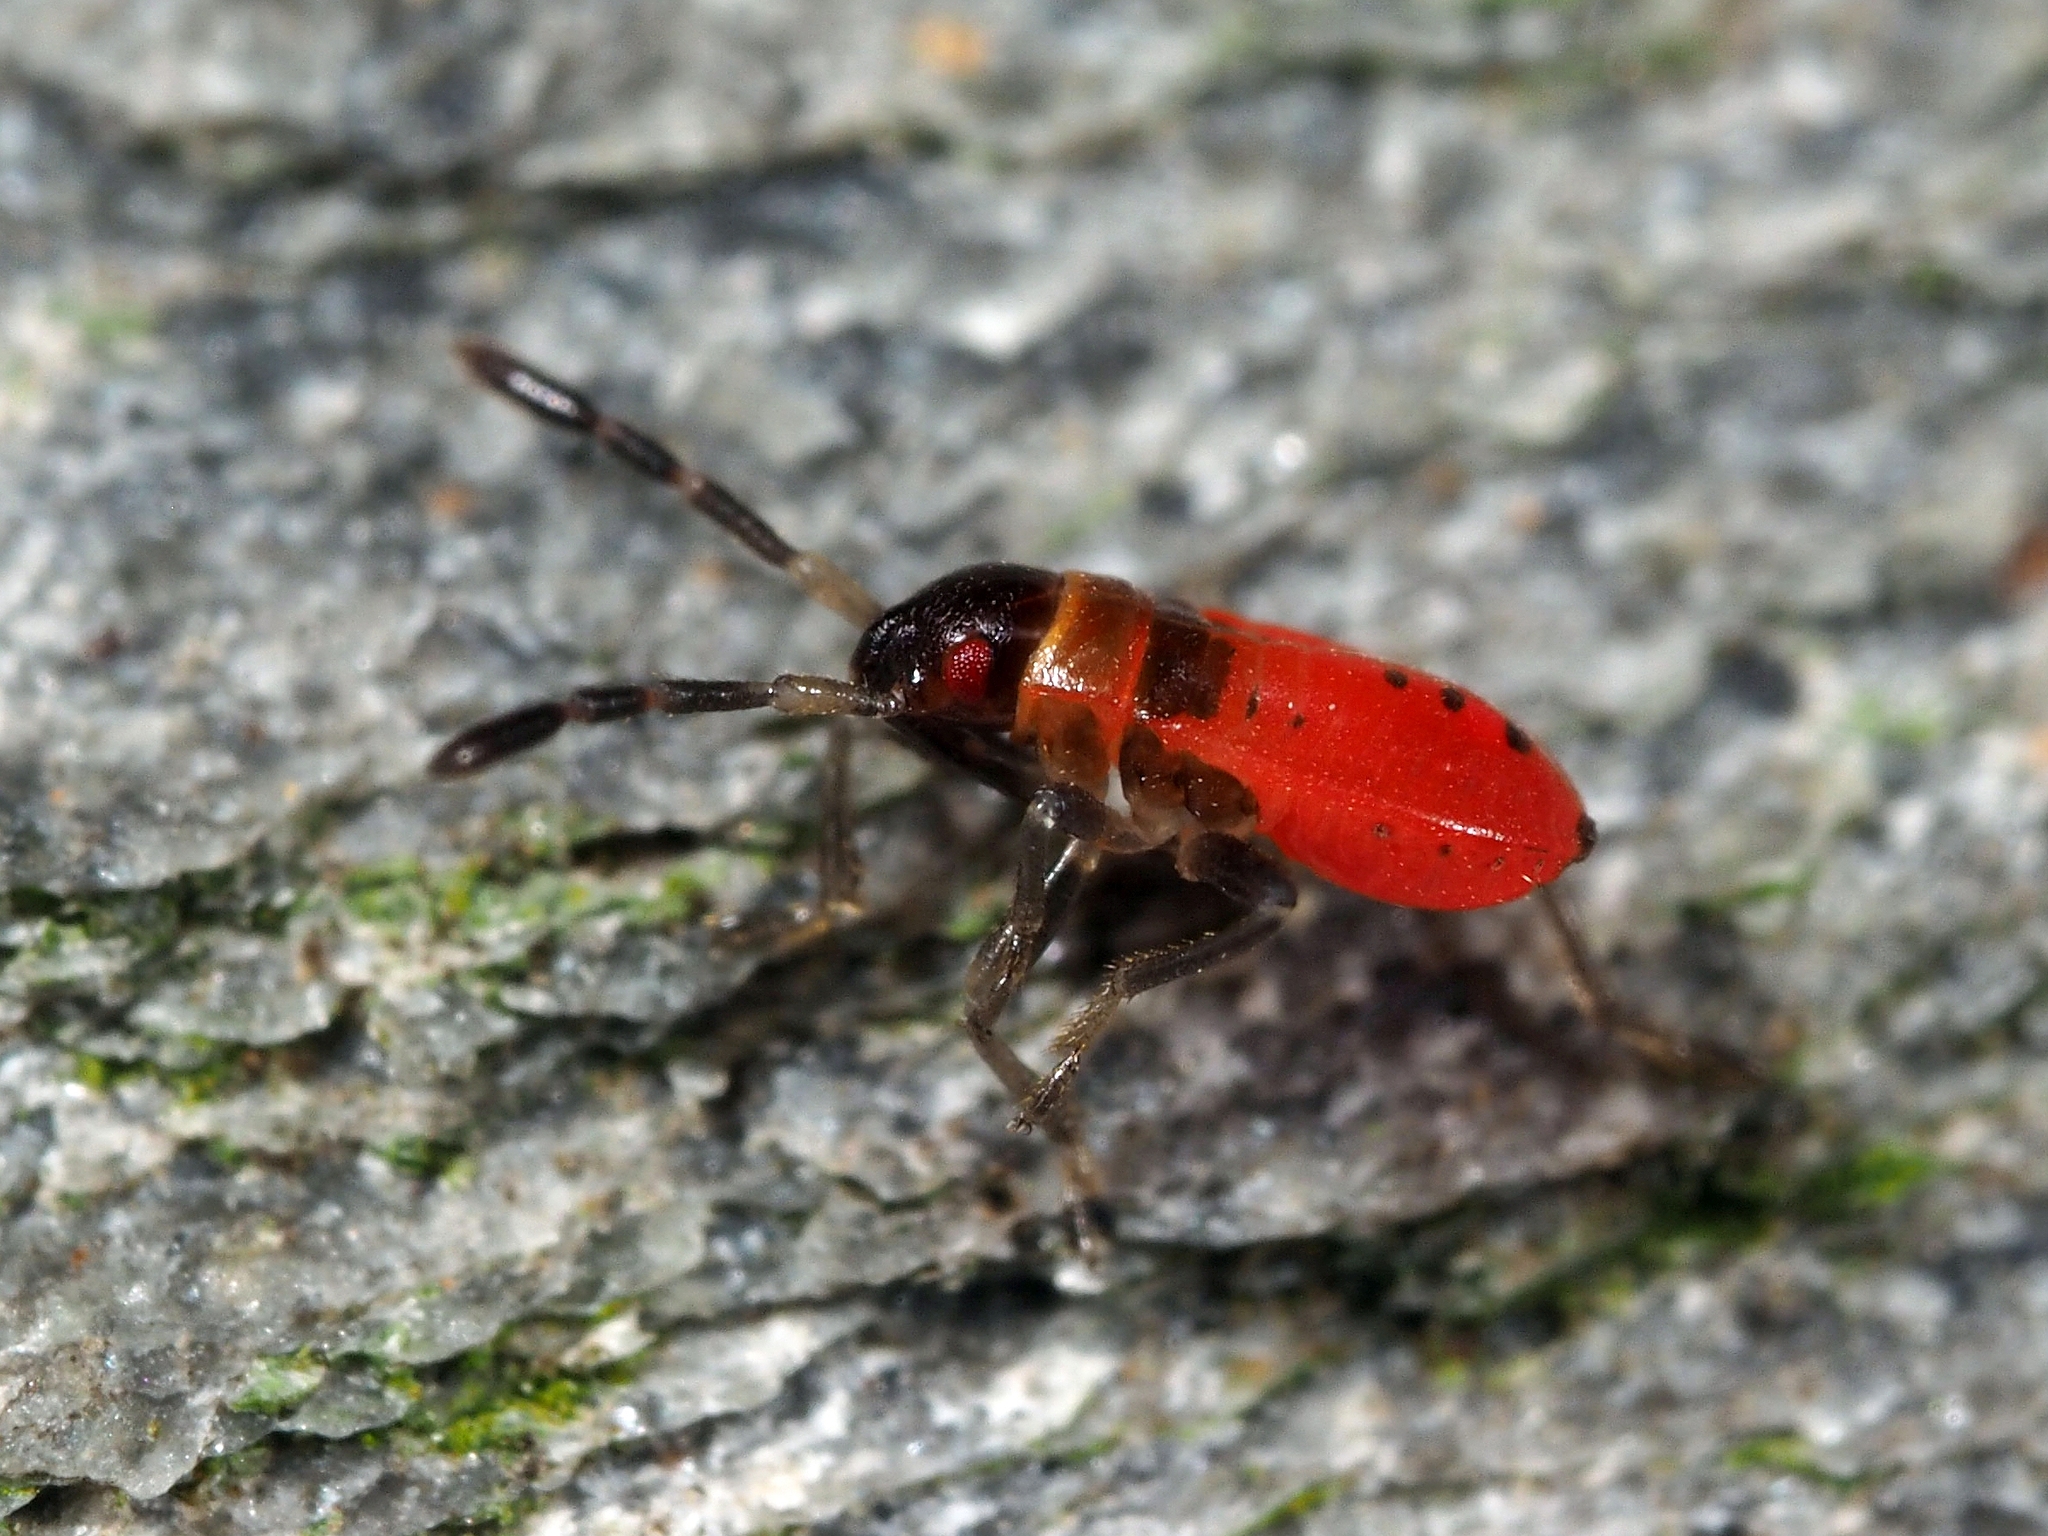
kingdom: Animalia
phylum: Arthropoda
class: Insecta
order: Hemiptera
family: Pyrrhocoridae
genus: Pyrrhocoris
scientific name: Pyrrhocoris apterus
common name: Firebug
